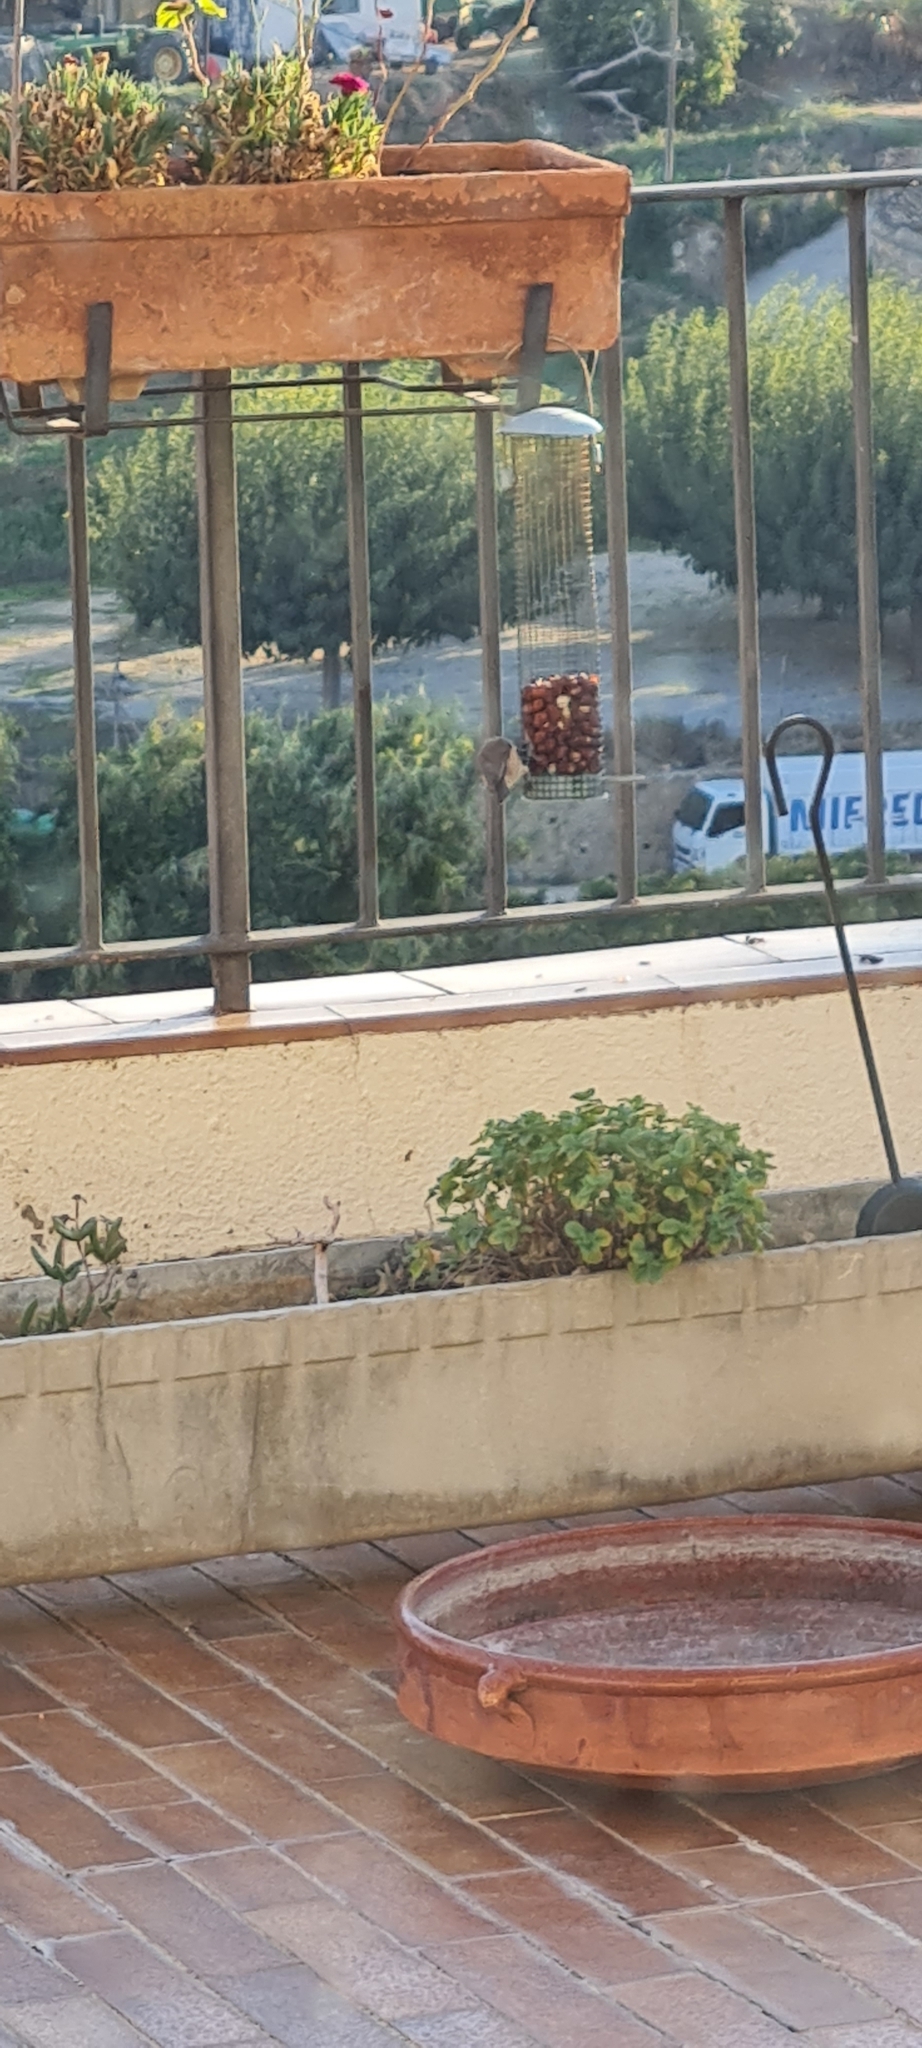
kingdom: Animalia
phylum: Chordata
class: Aves
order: Passeriformes
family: Paridae
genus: Lophophanes
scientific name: Lophophanes cristatus
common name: European crested tit
